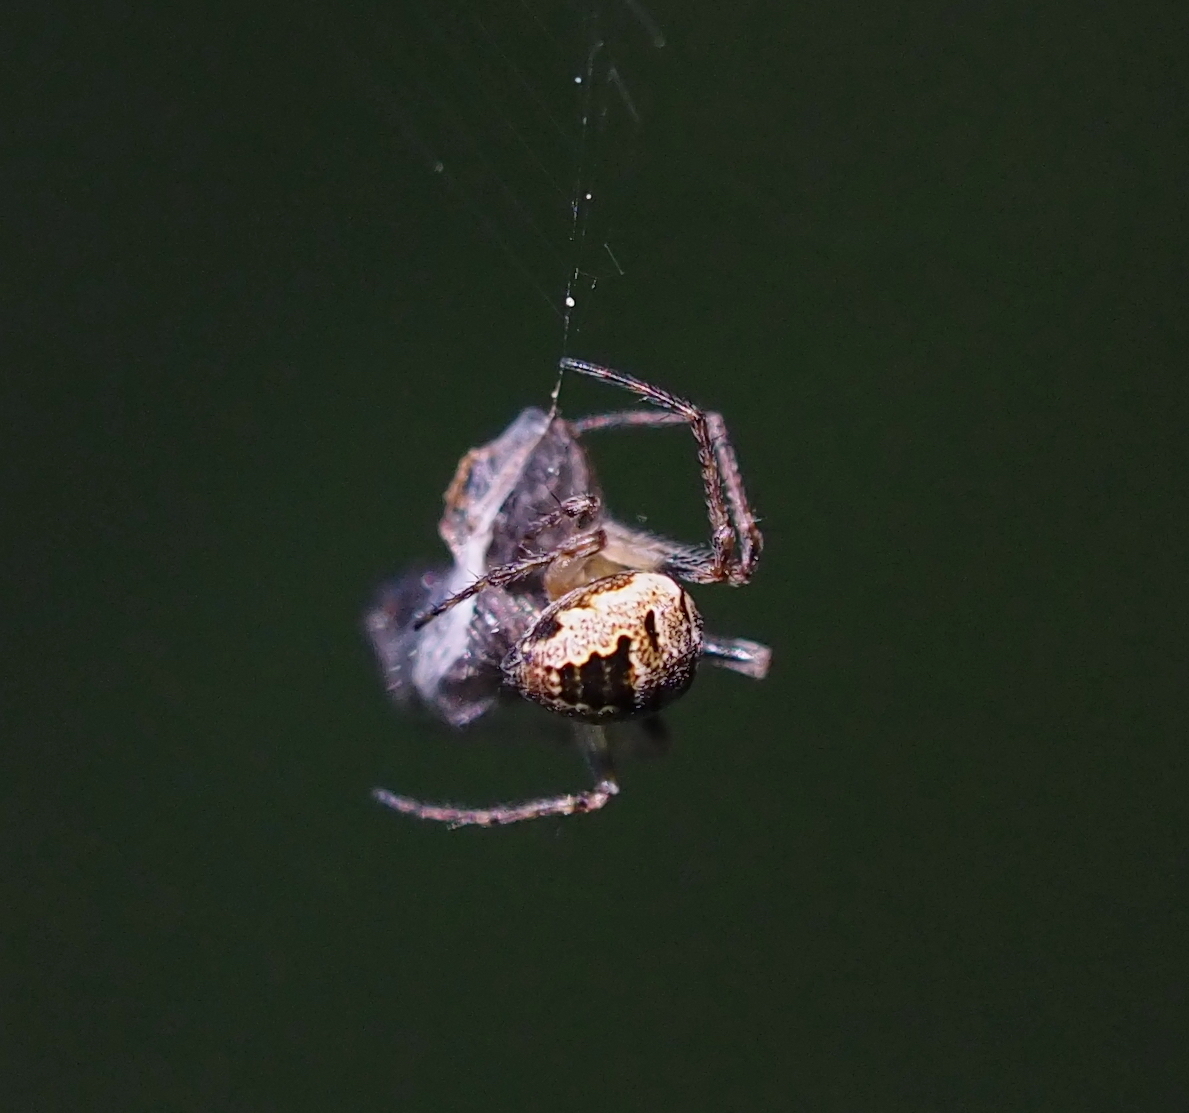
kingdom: Animalia
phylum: Arthropoda
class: Arachnida
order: Araneae
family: Araneidae
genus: Zilla
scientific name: Zilla diodia
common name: Zilla diodia
